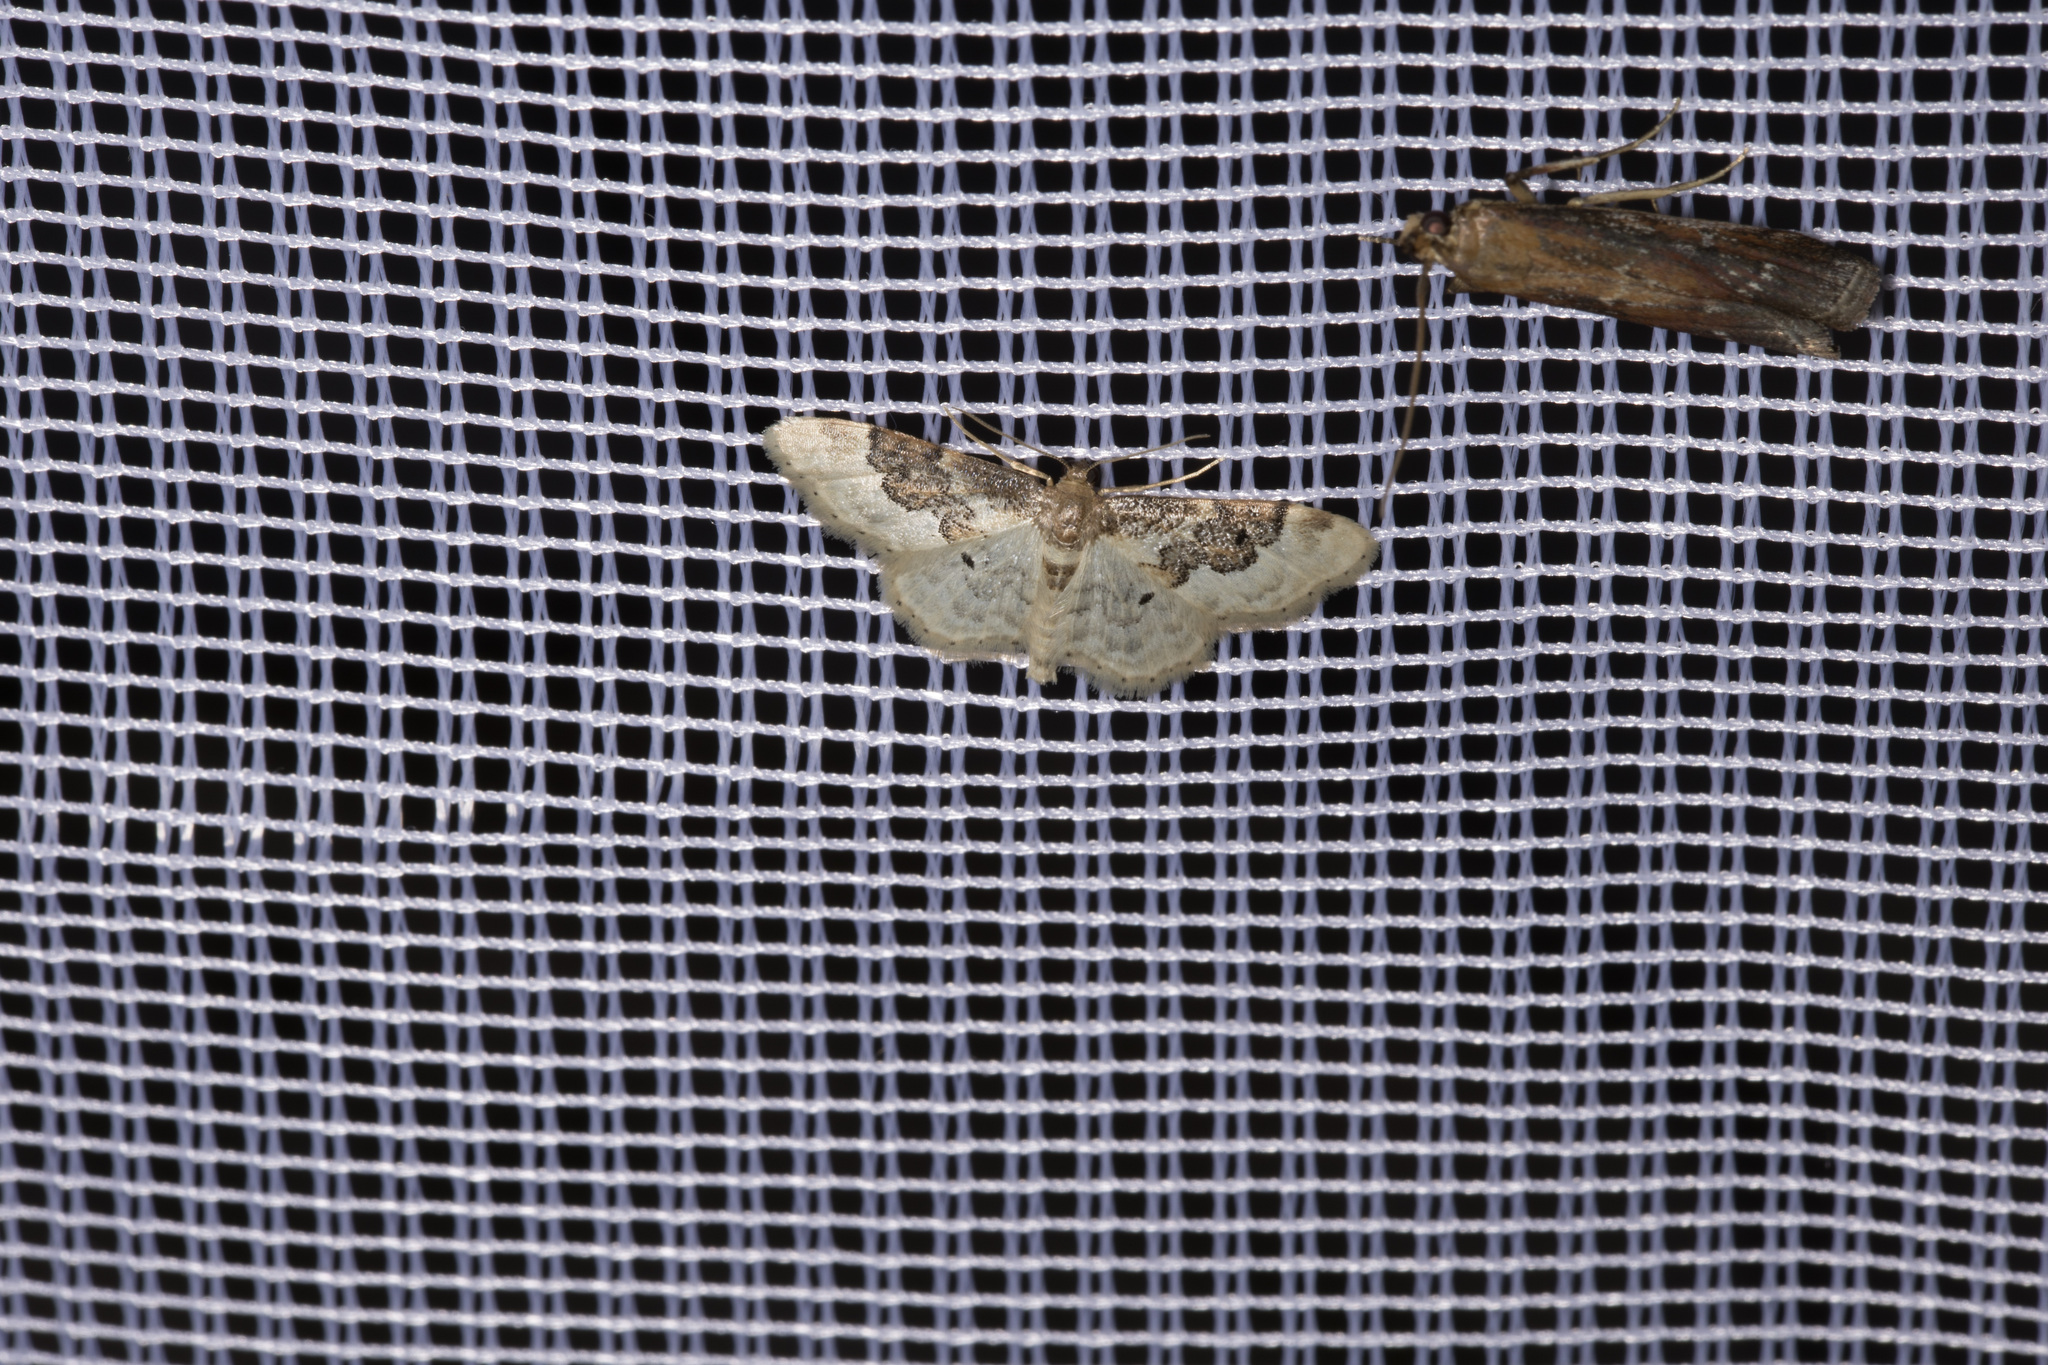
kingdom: Animalia
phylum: Arthropoda
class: Insecta
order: Lepidoptera
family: Geometridae
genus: Idaea
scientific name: Idaea rusticata
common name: Least carpet
